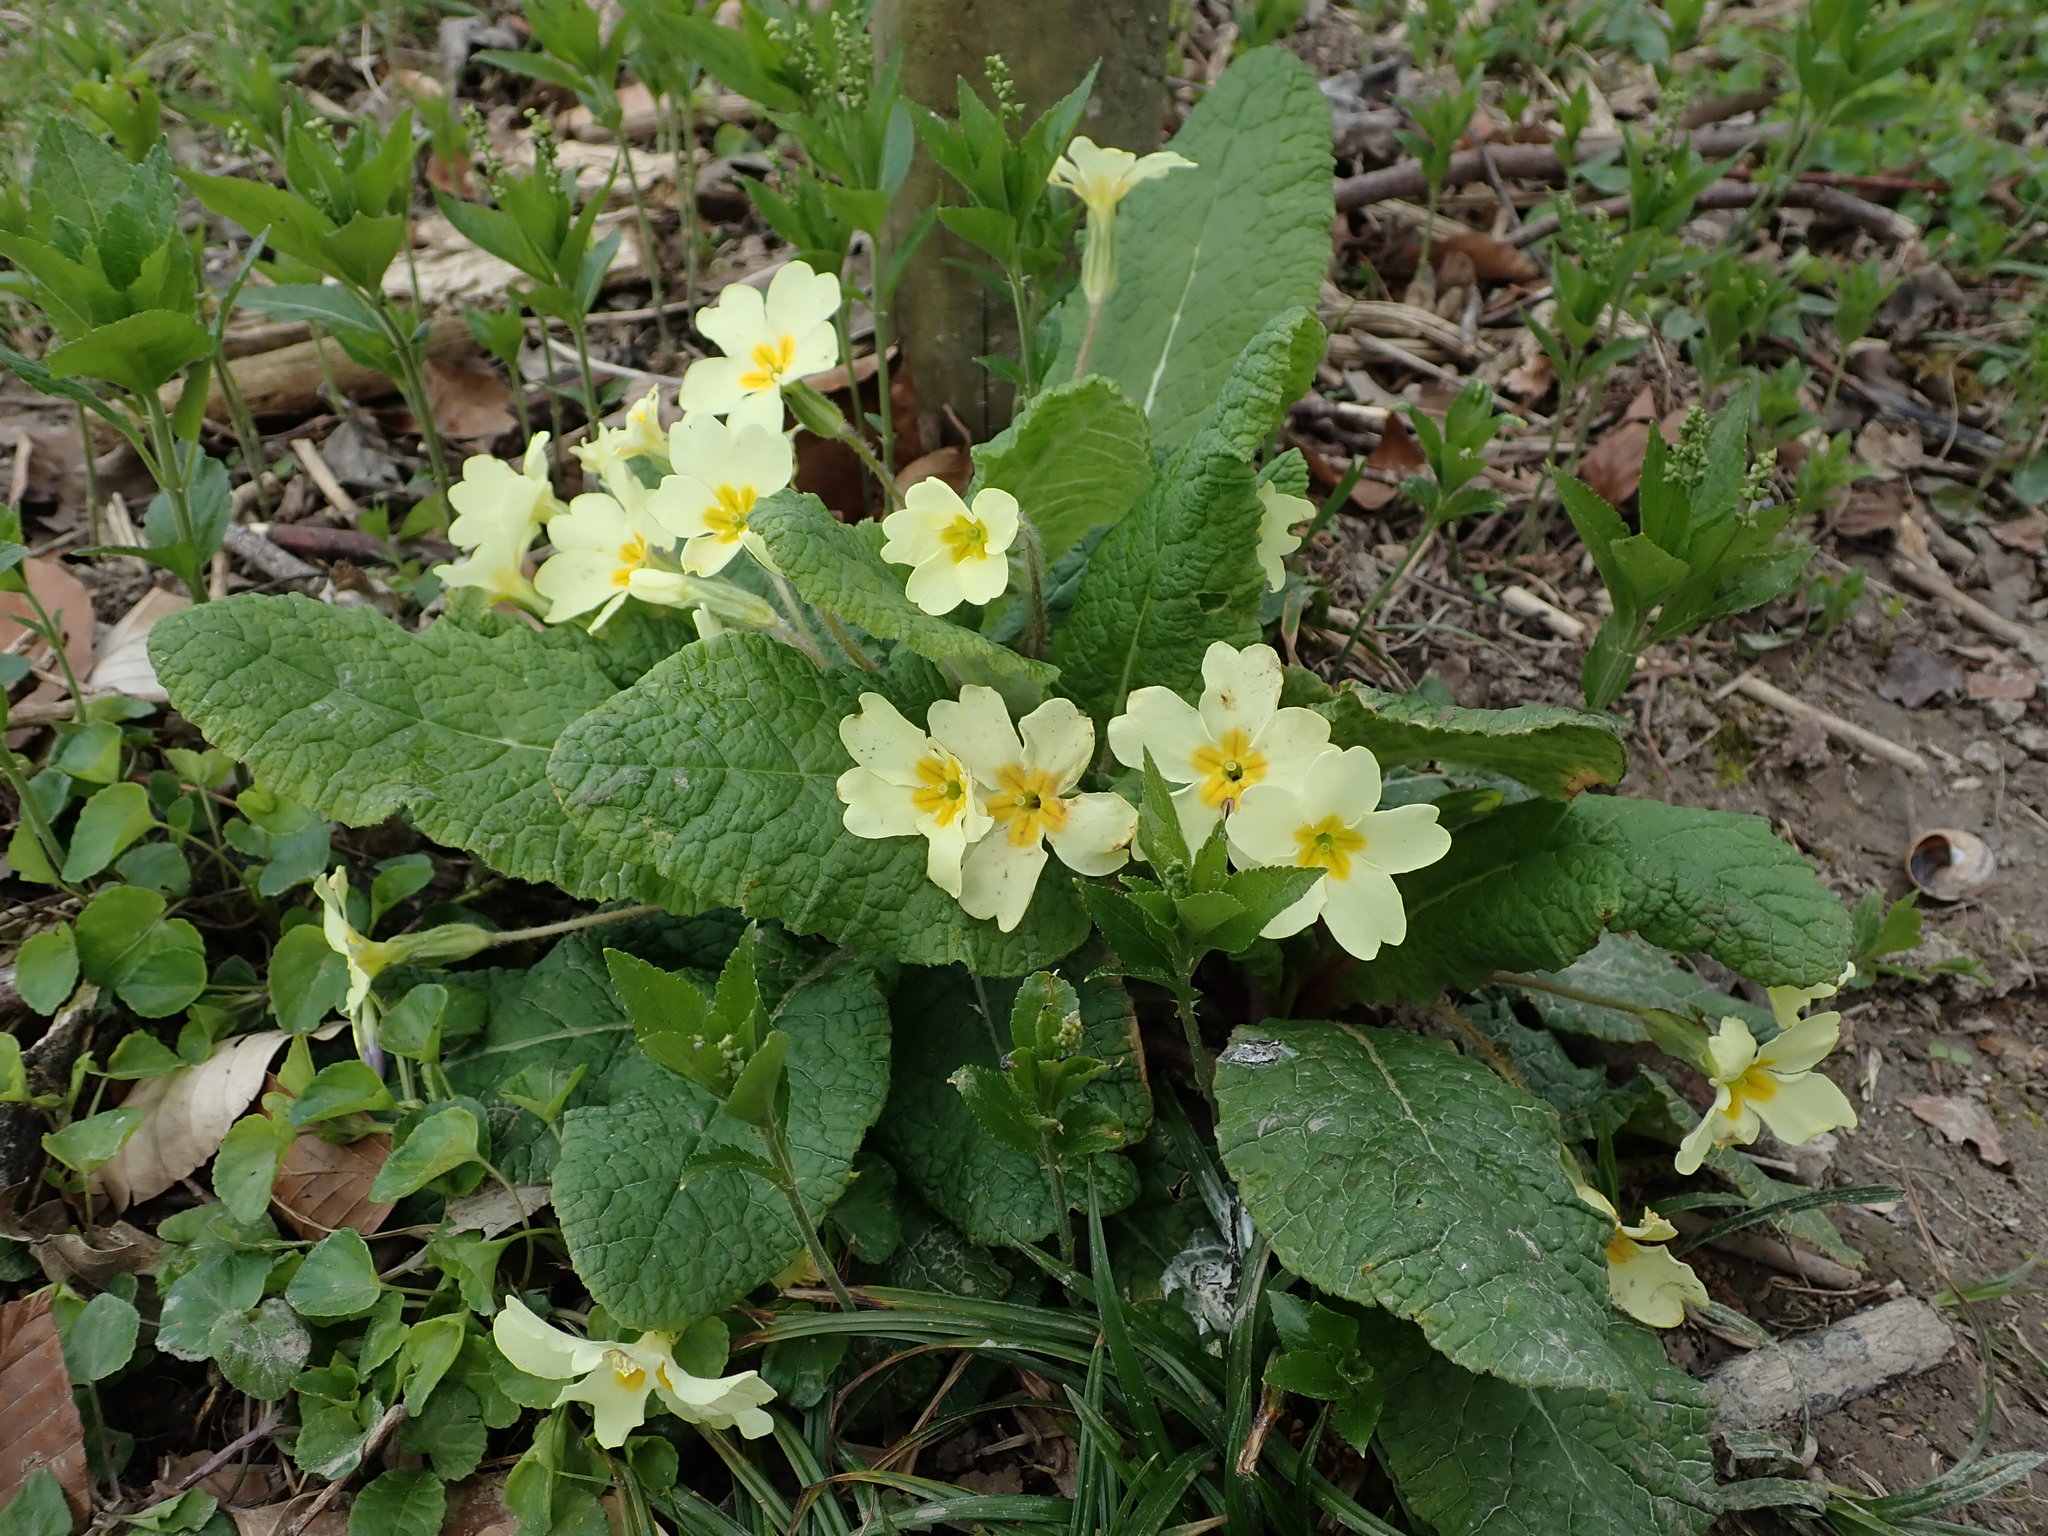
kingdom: Plantae
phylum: Tracheophyta
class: Magnoliopsida
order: Ericales
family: Primulaceae
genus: Primula
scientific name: Primula vulgaris
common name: Primrose
